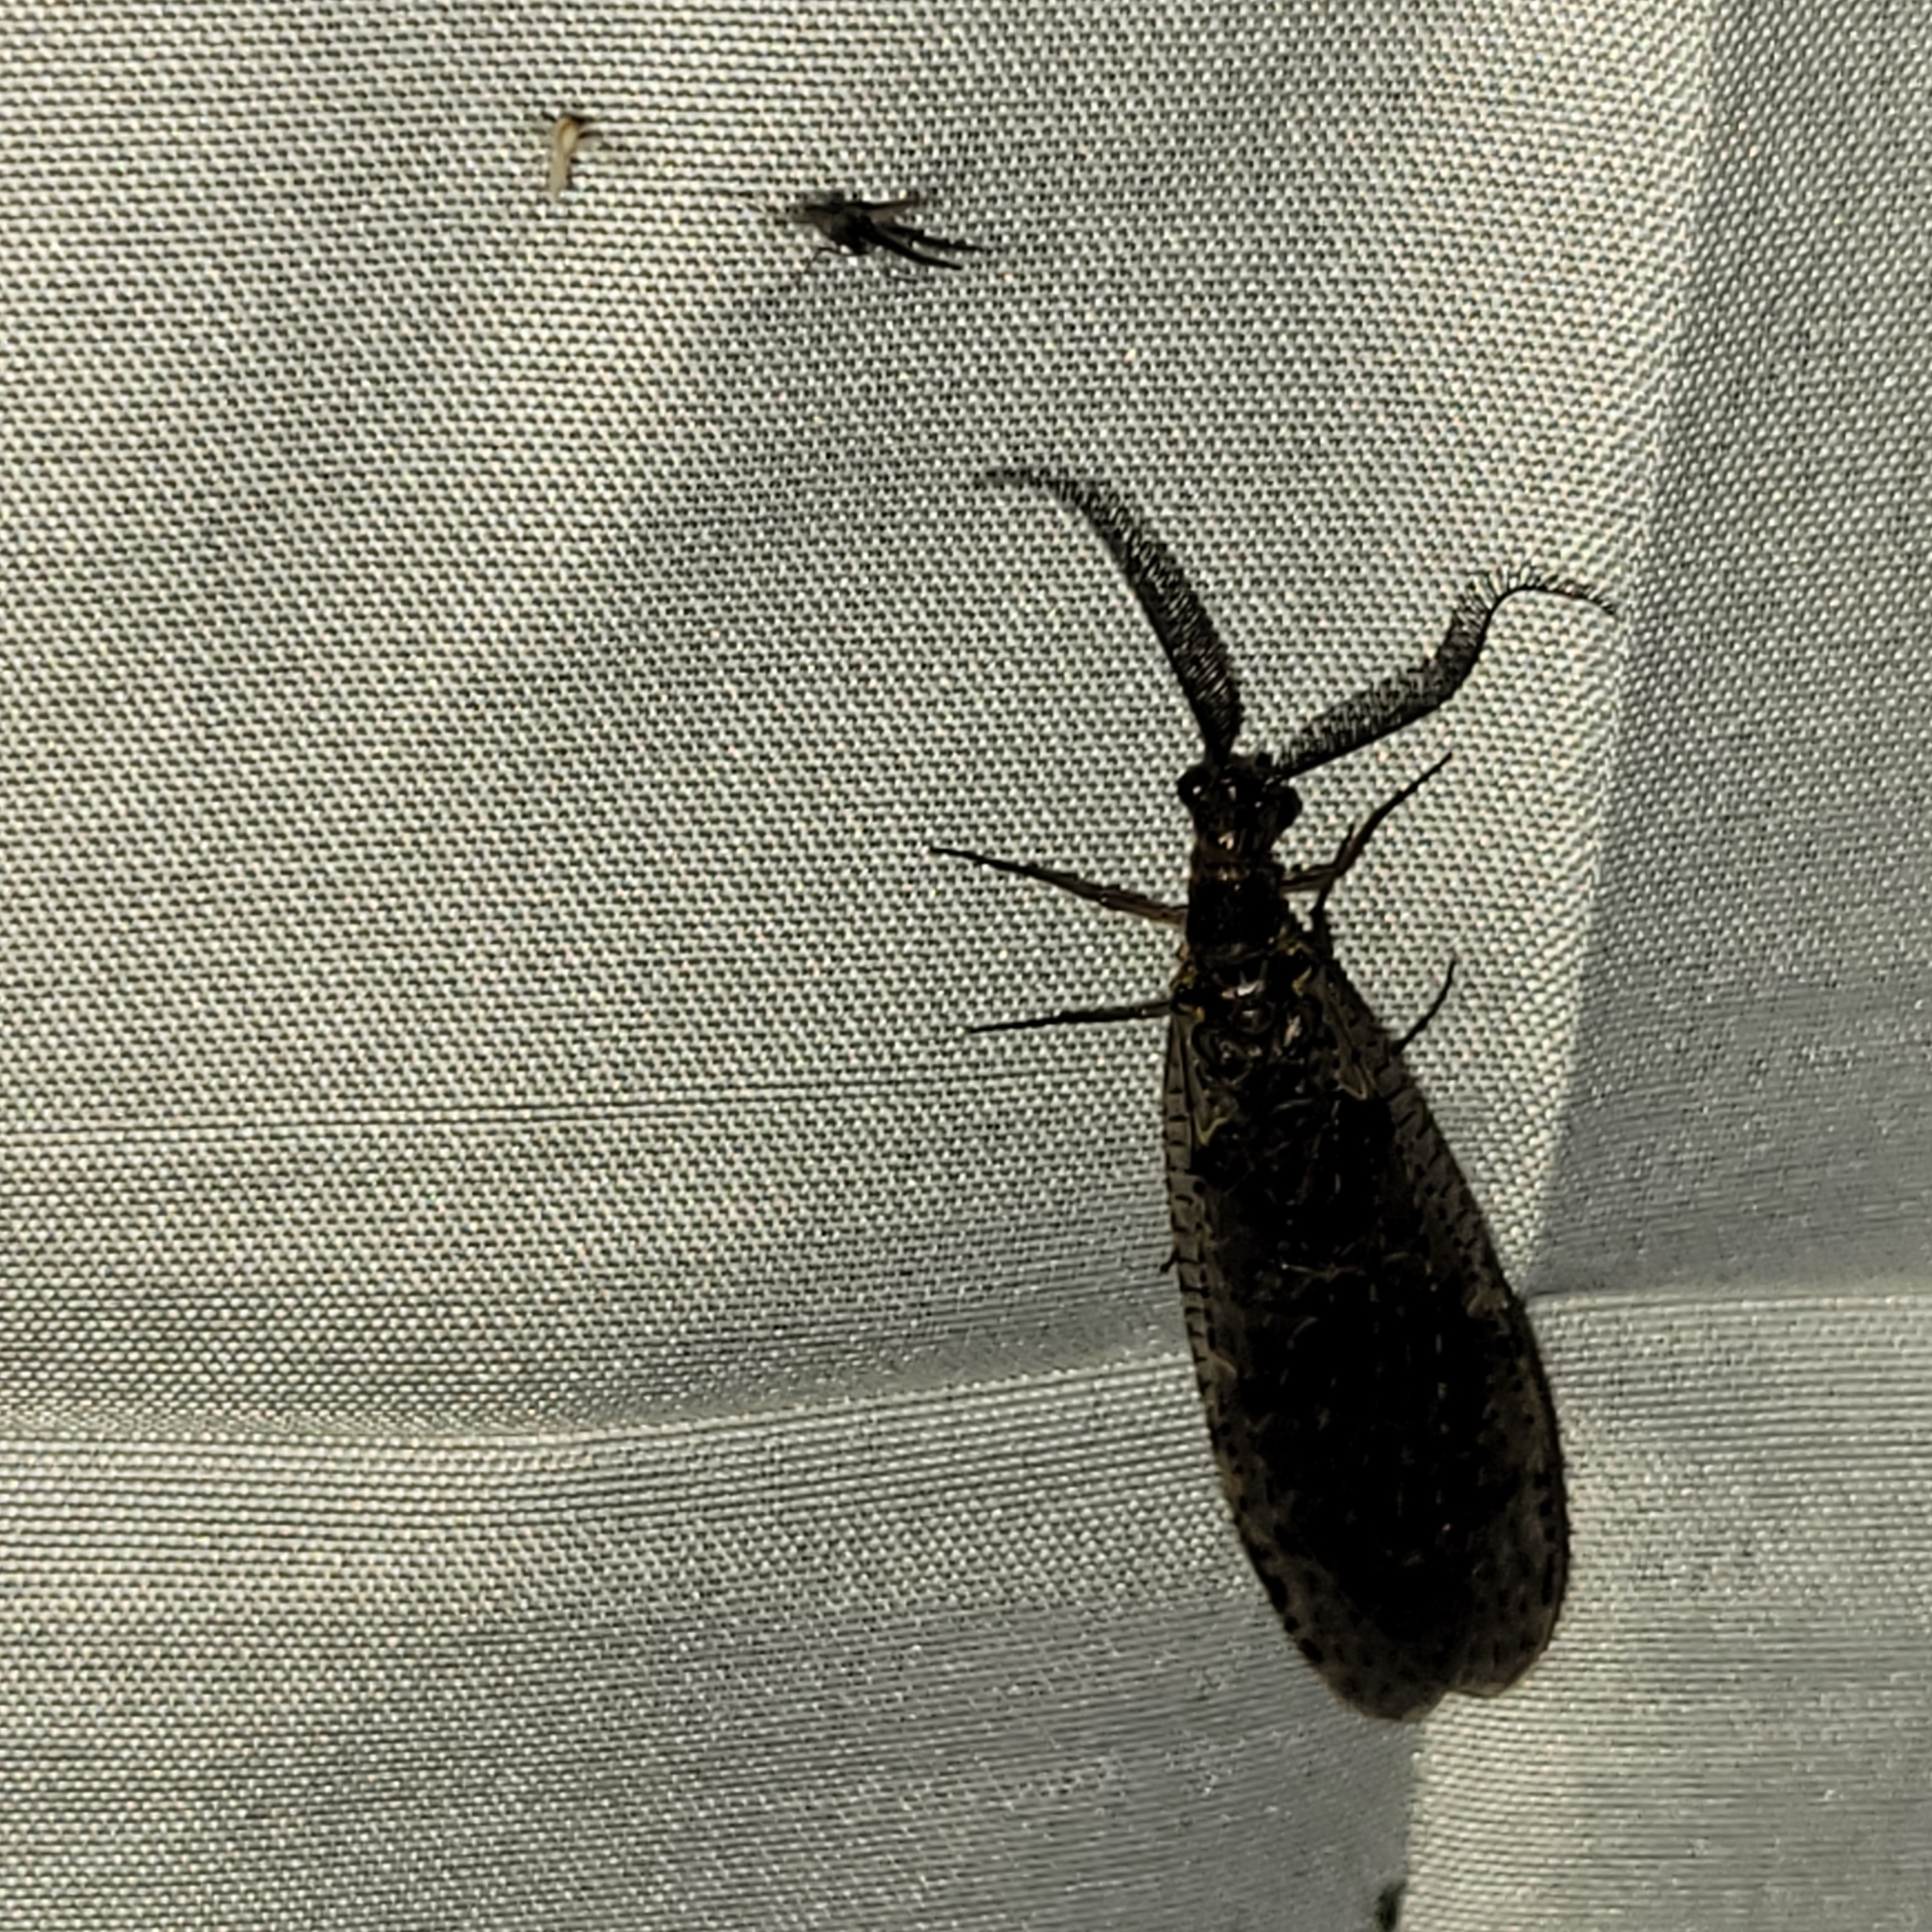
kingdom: Animalia
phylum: Arthropoda
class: Insecta
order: Megaloptera
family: Corydalidae
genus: Chauliodes
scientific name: Chauliodes rastricornis
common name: Spring fishfly
